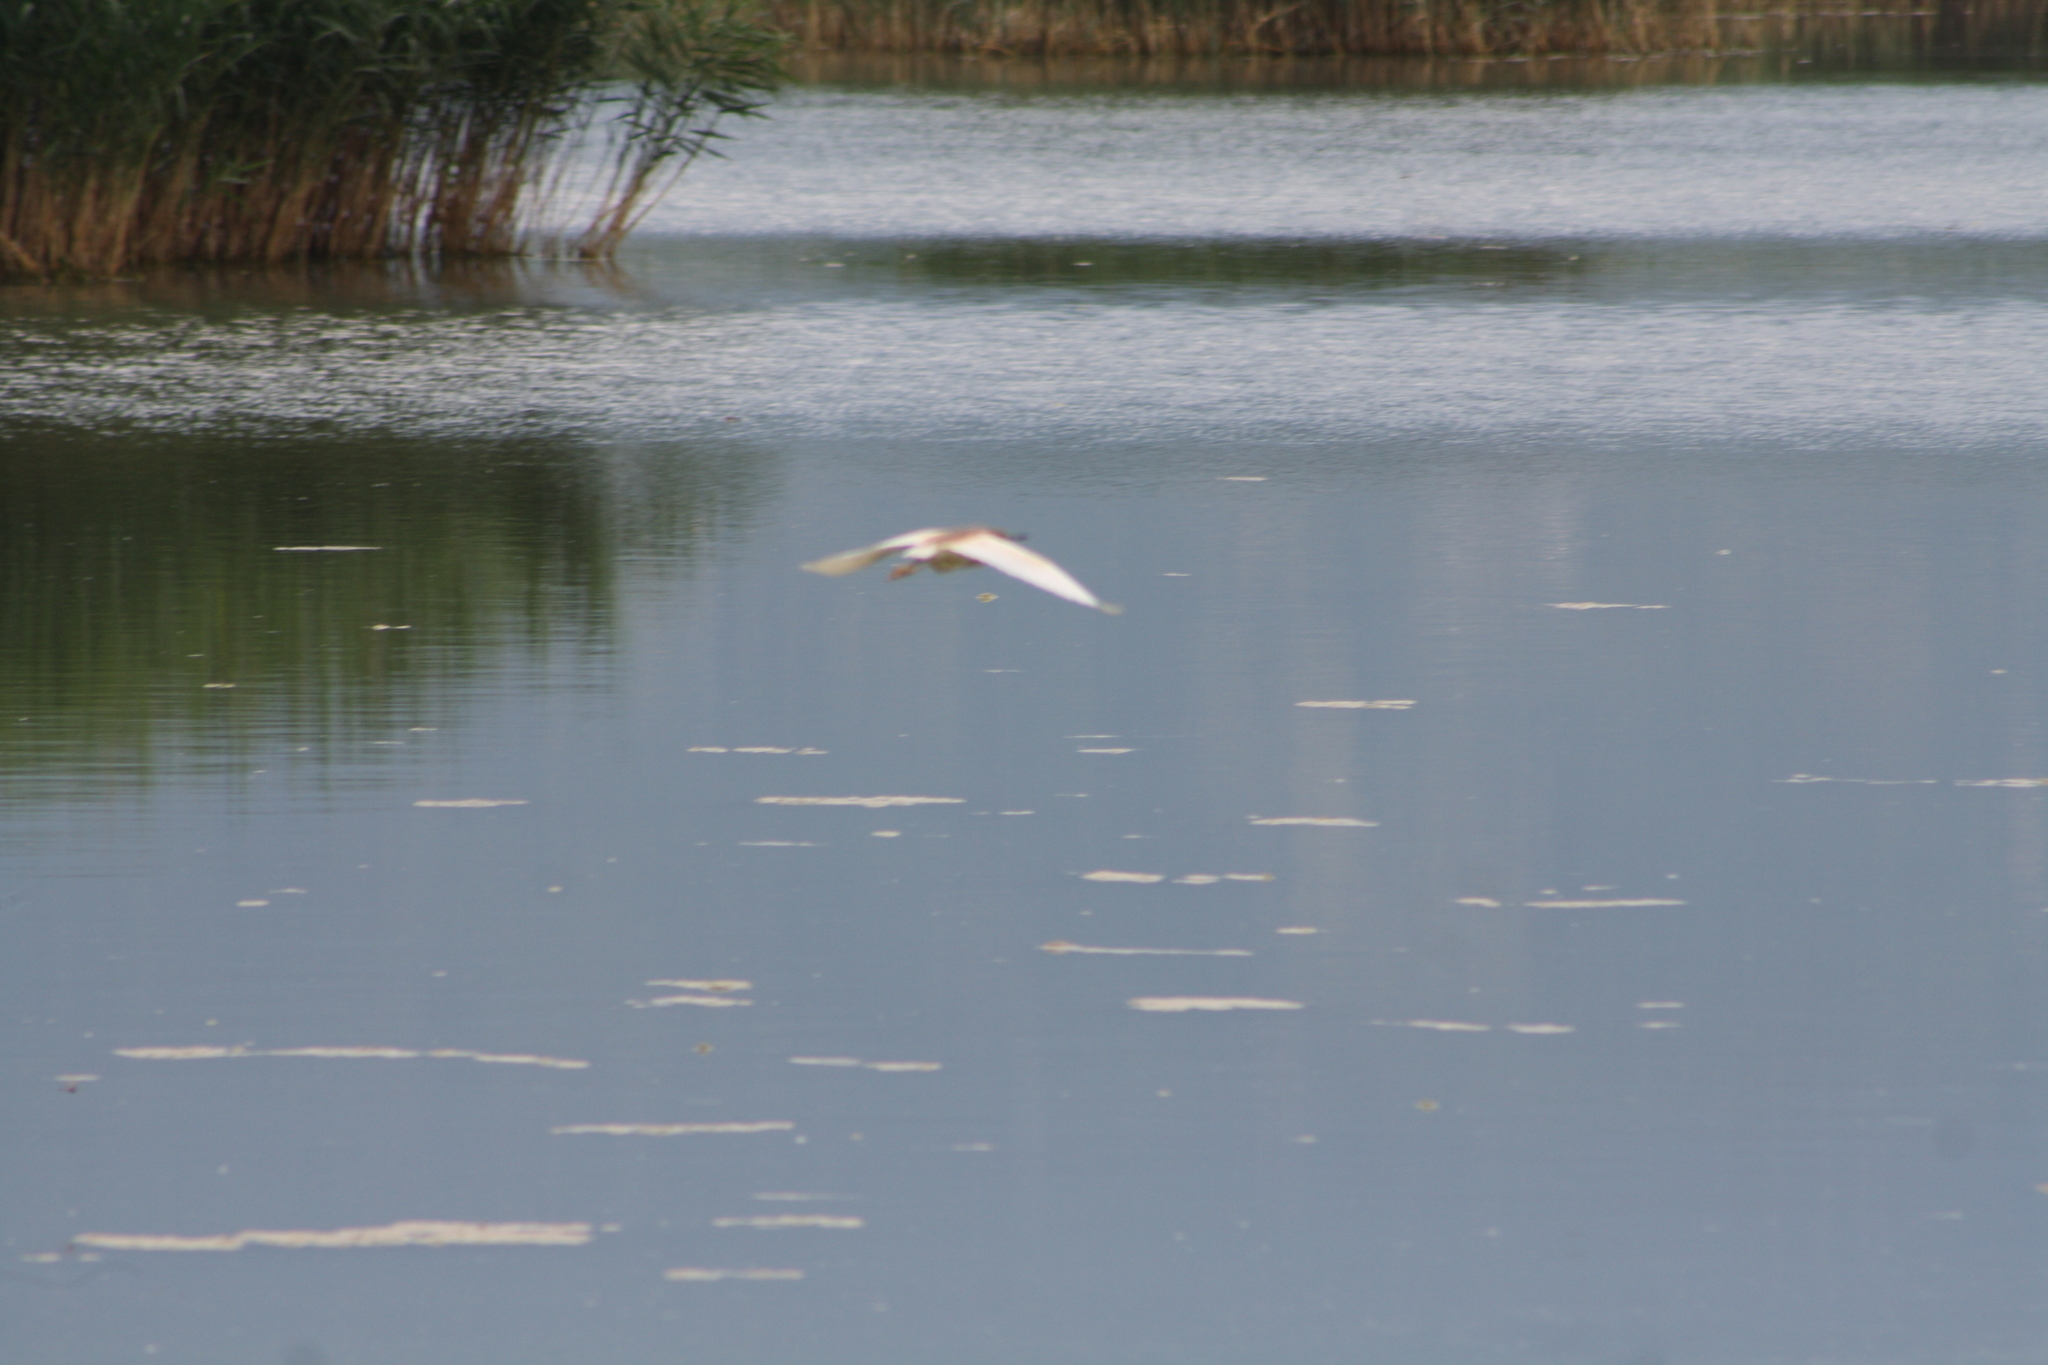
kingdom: Animalia
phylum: Chordata
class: Aves
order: Pelecaniformes
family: Ardeidae
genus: Ardeola
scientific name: Ardeola ralloides
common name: Squacco heron
